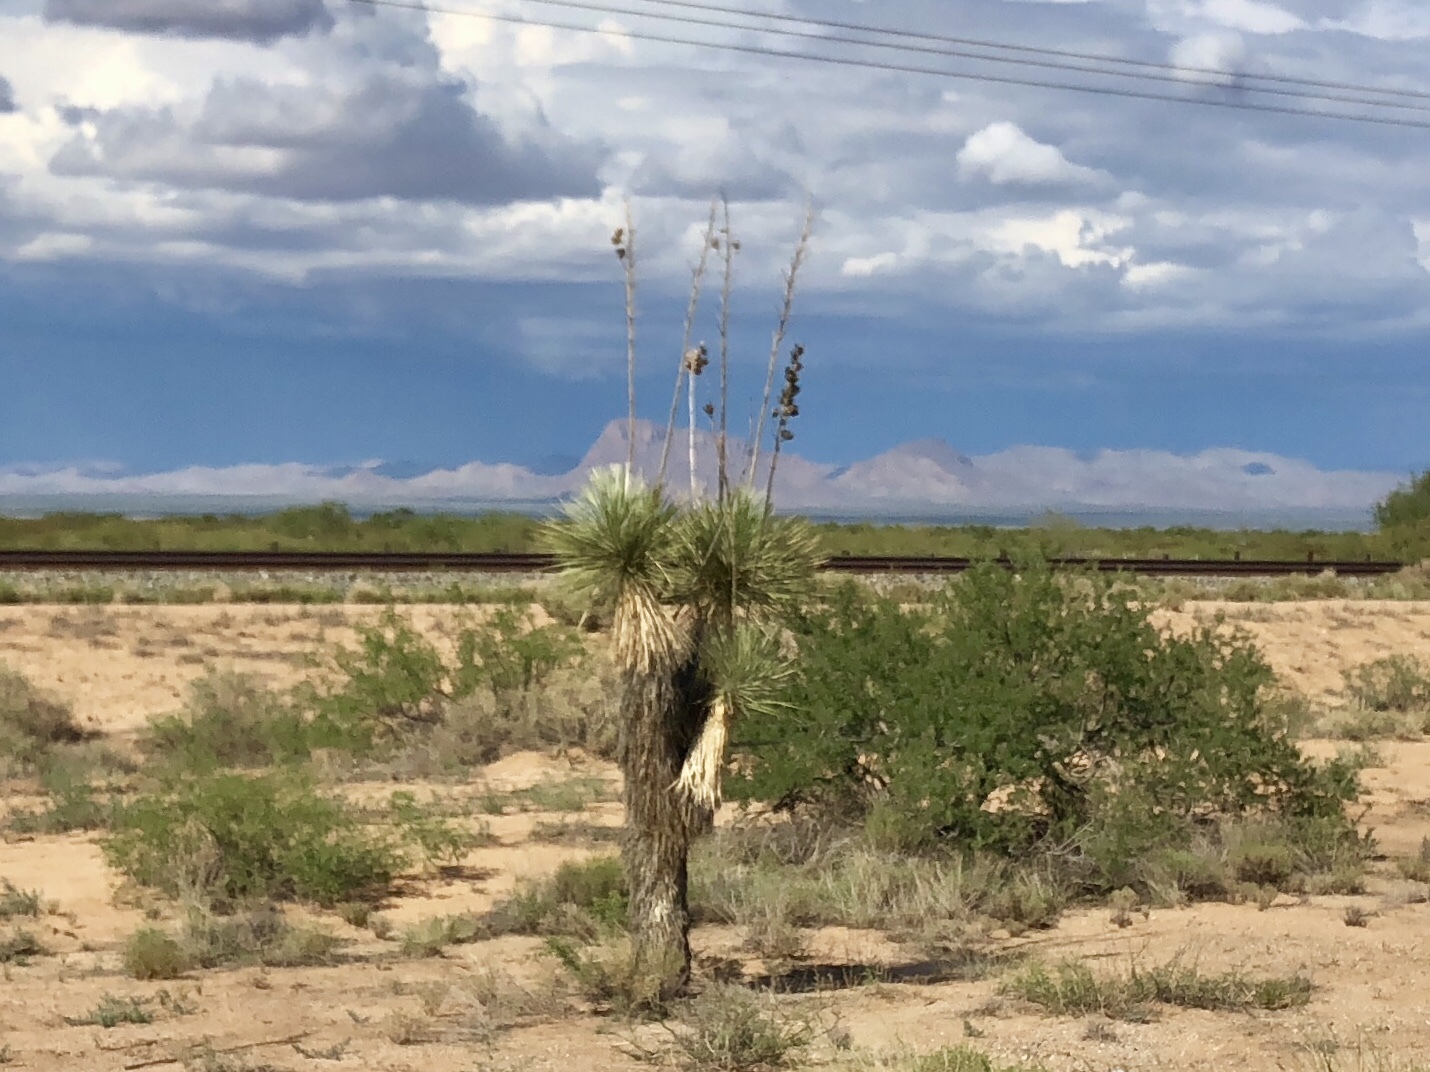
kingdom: Plantae
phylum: Tracheophyta
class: Liliopsida
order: Asparagales
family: Asparagaceae
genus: Yucca
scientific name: Yucca elata
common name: Palmella
